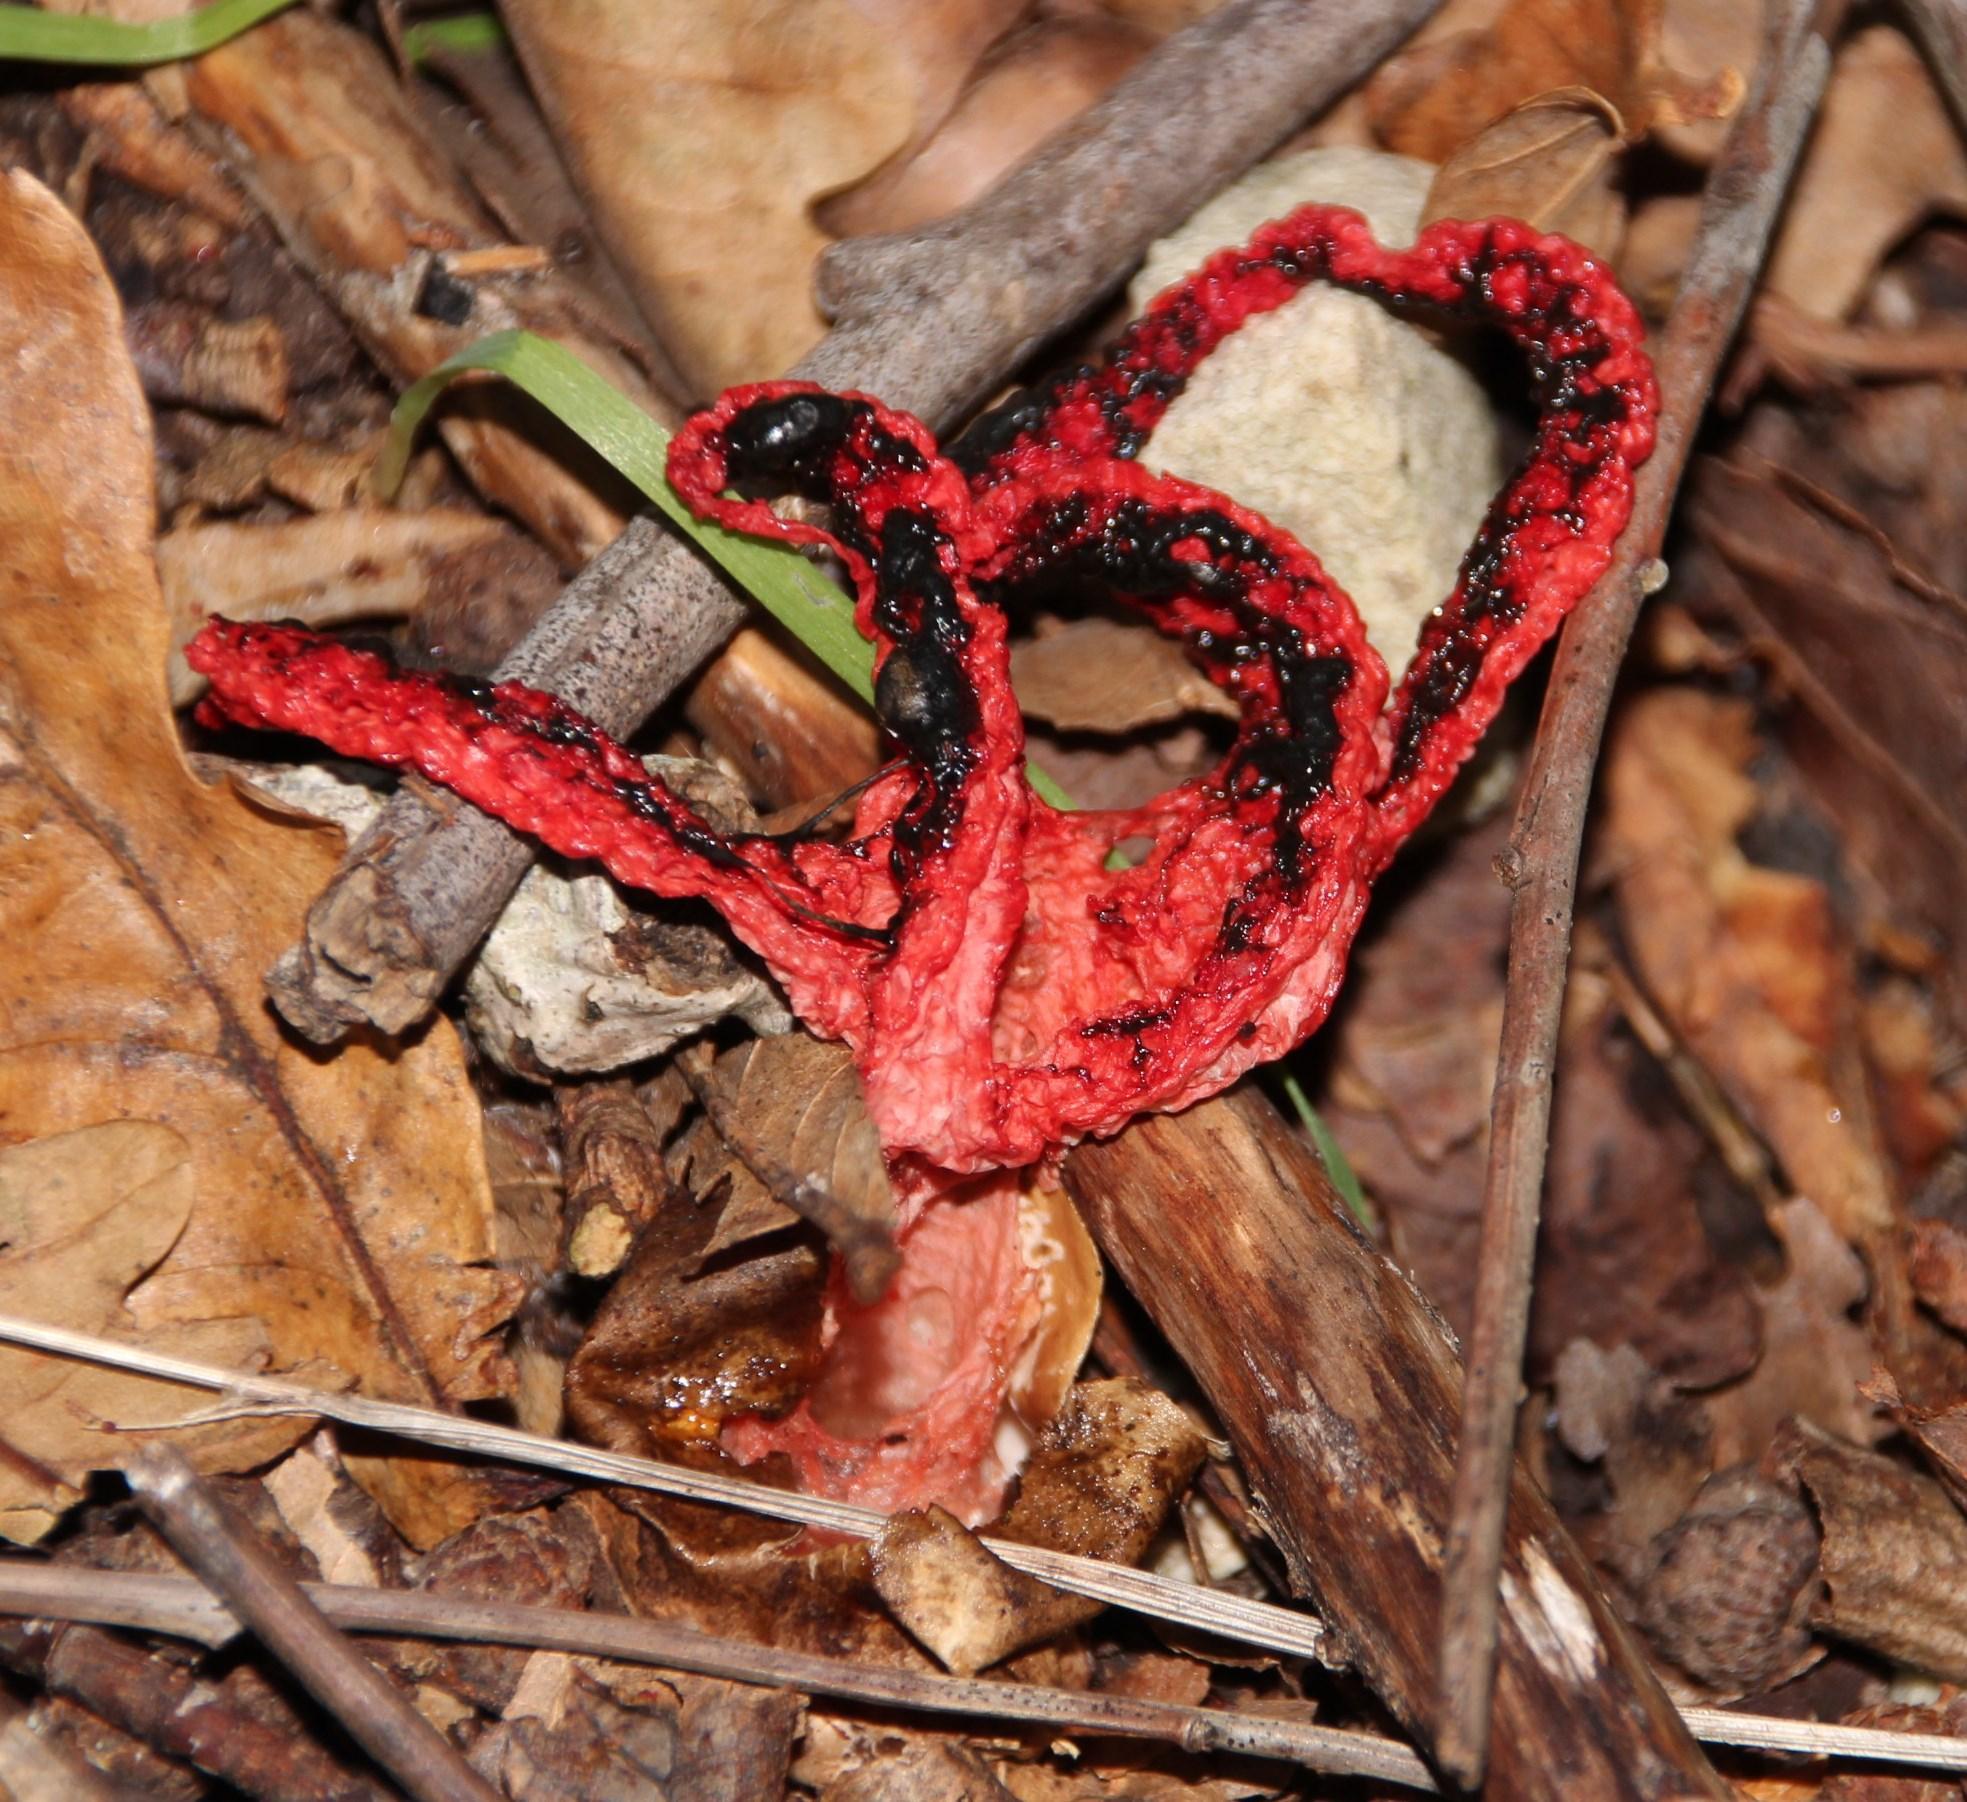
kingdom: Fungi
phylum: Basidiomycota
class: Agaricomycetes
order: Phallales
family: Phallaceae
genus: Clathrus
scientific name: Clathrus archeri
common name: Devil's fingers
